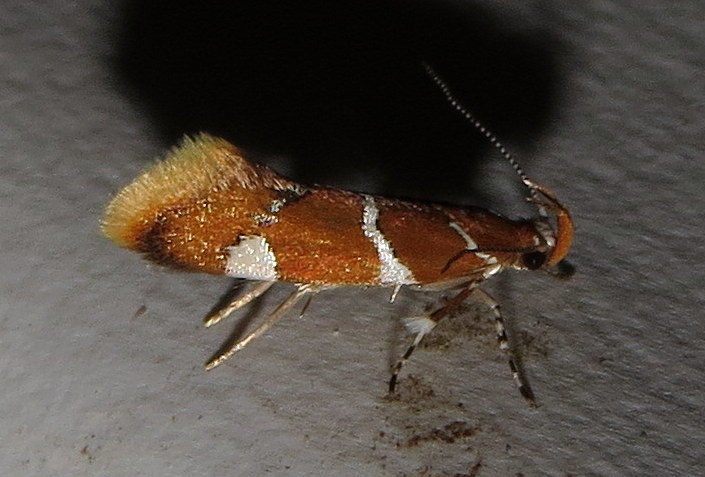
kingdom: Animalia
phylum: Arthropoda
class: Insecta
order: Lepidoptera
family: Oecophoridae
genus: Promalactis
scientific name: Promalactis suzukiella
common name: Moth
